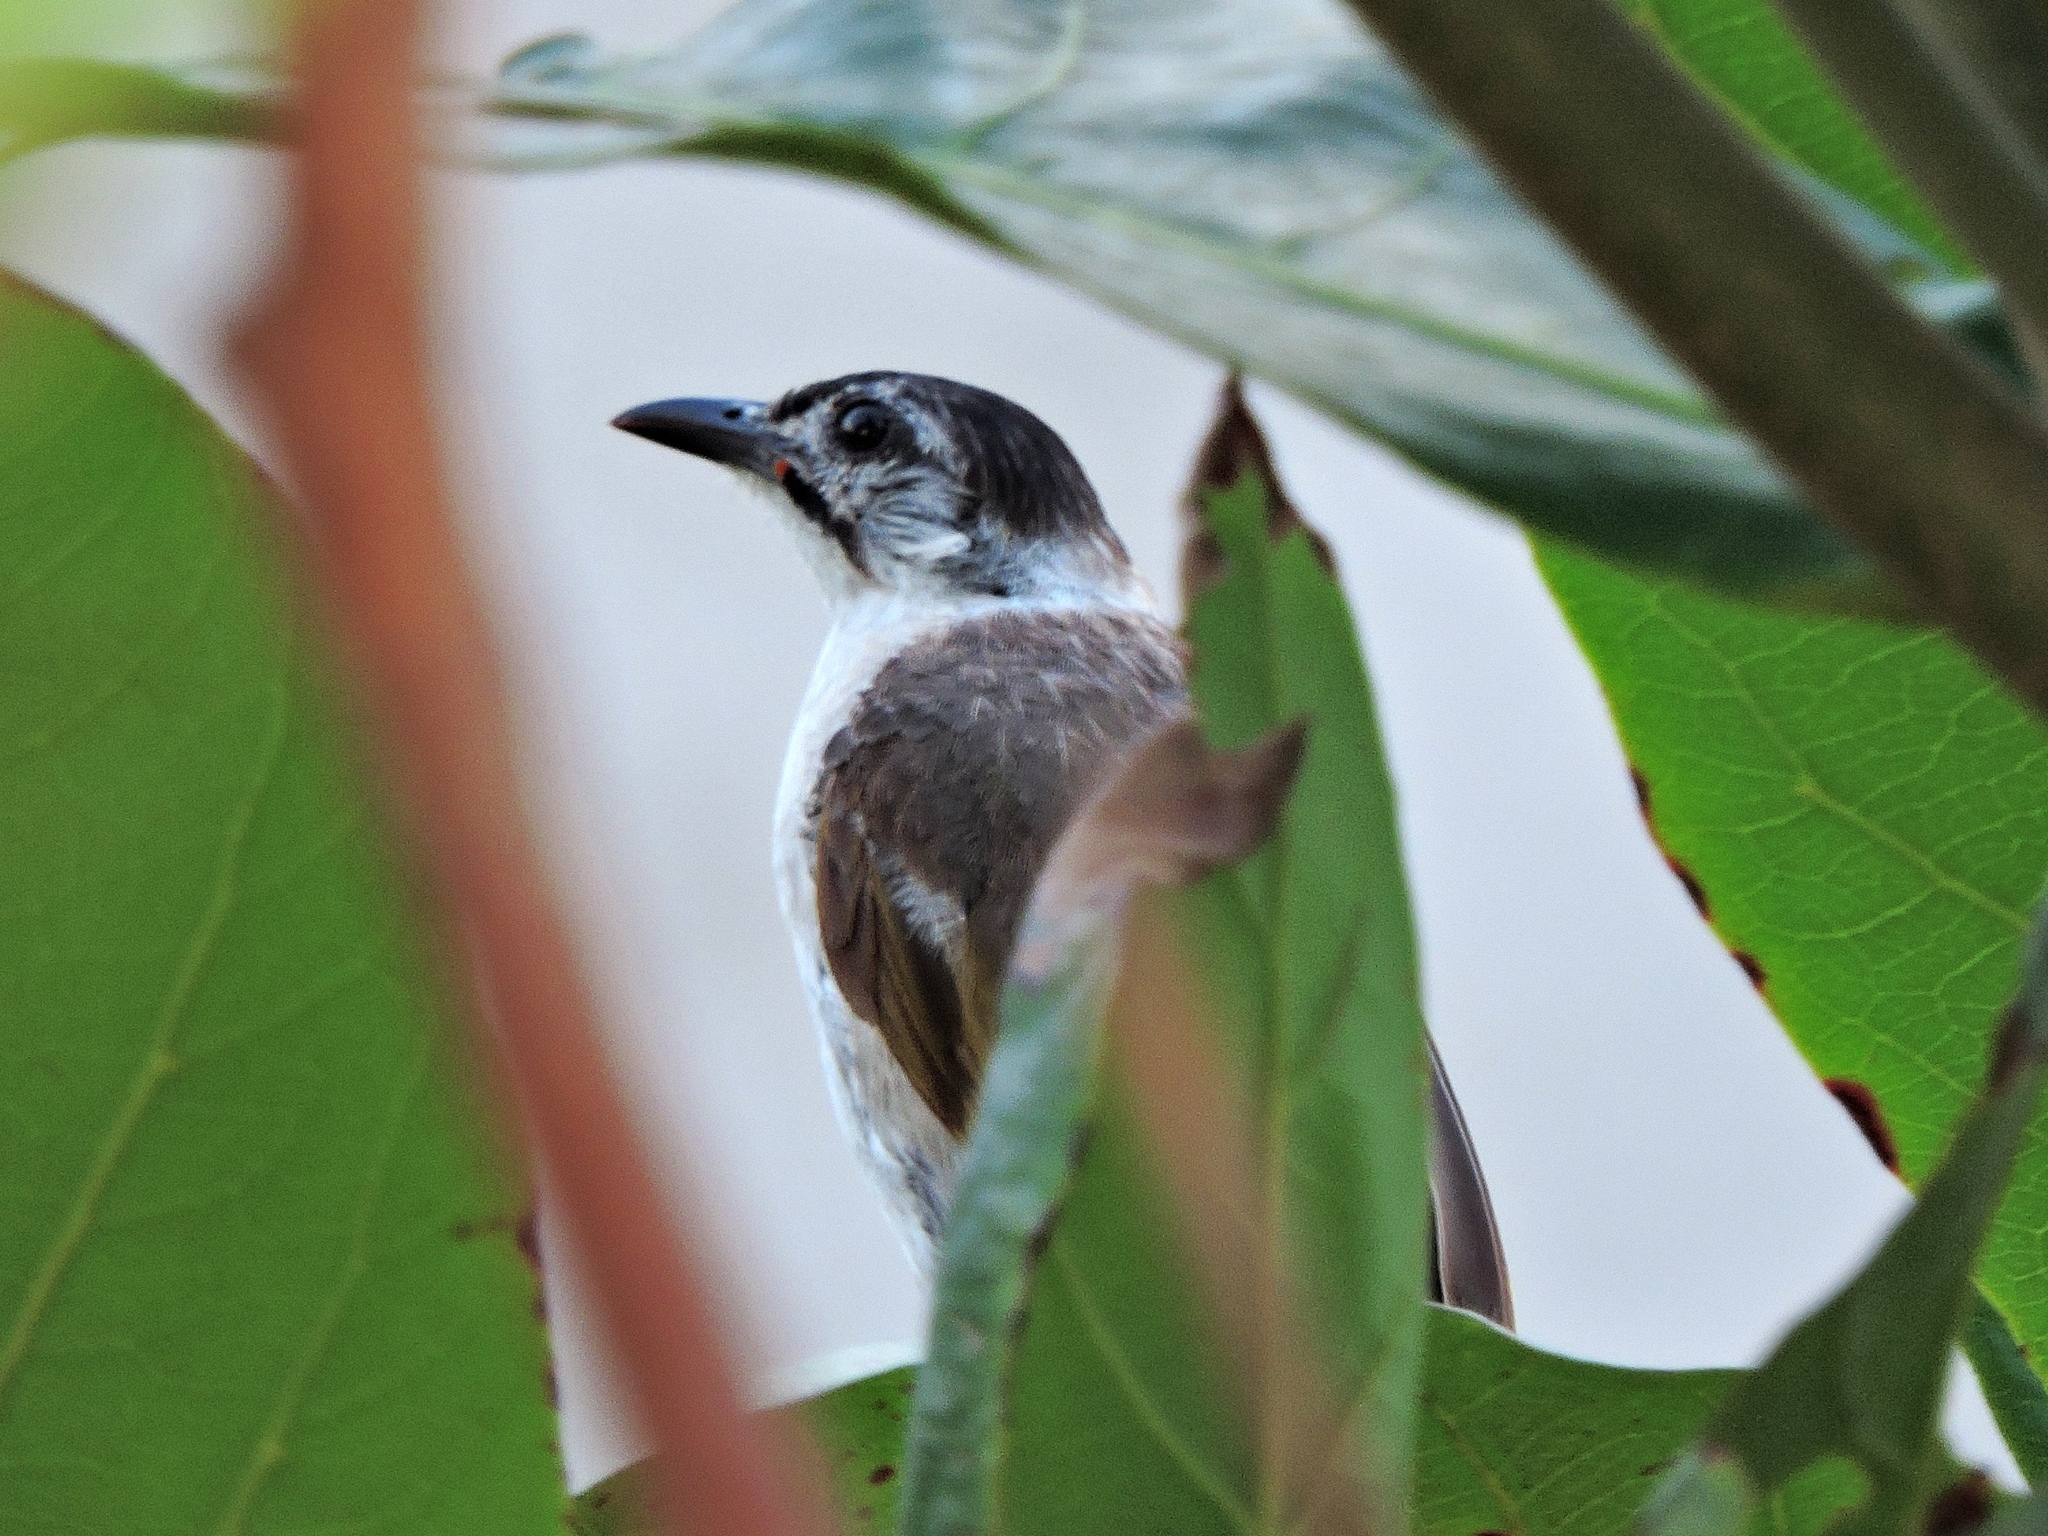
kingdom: Animalia
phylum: Chordata
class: Aves
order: Passeriformes
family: Pycnonotidae
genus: Pycnonotus
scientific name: Pycnonotus taivanus
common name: Styan's bulbul
